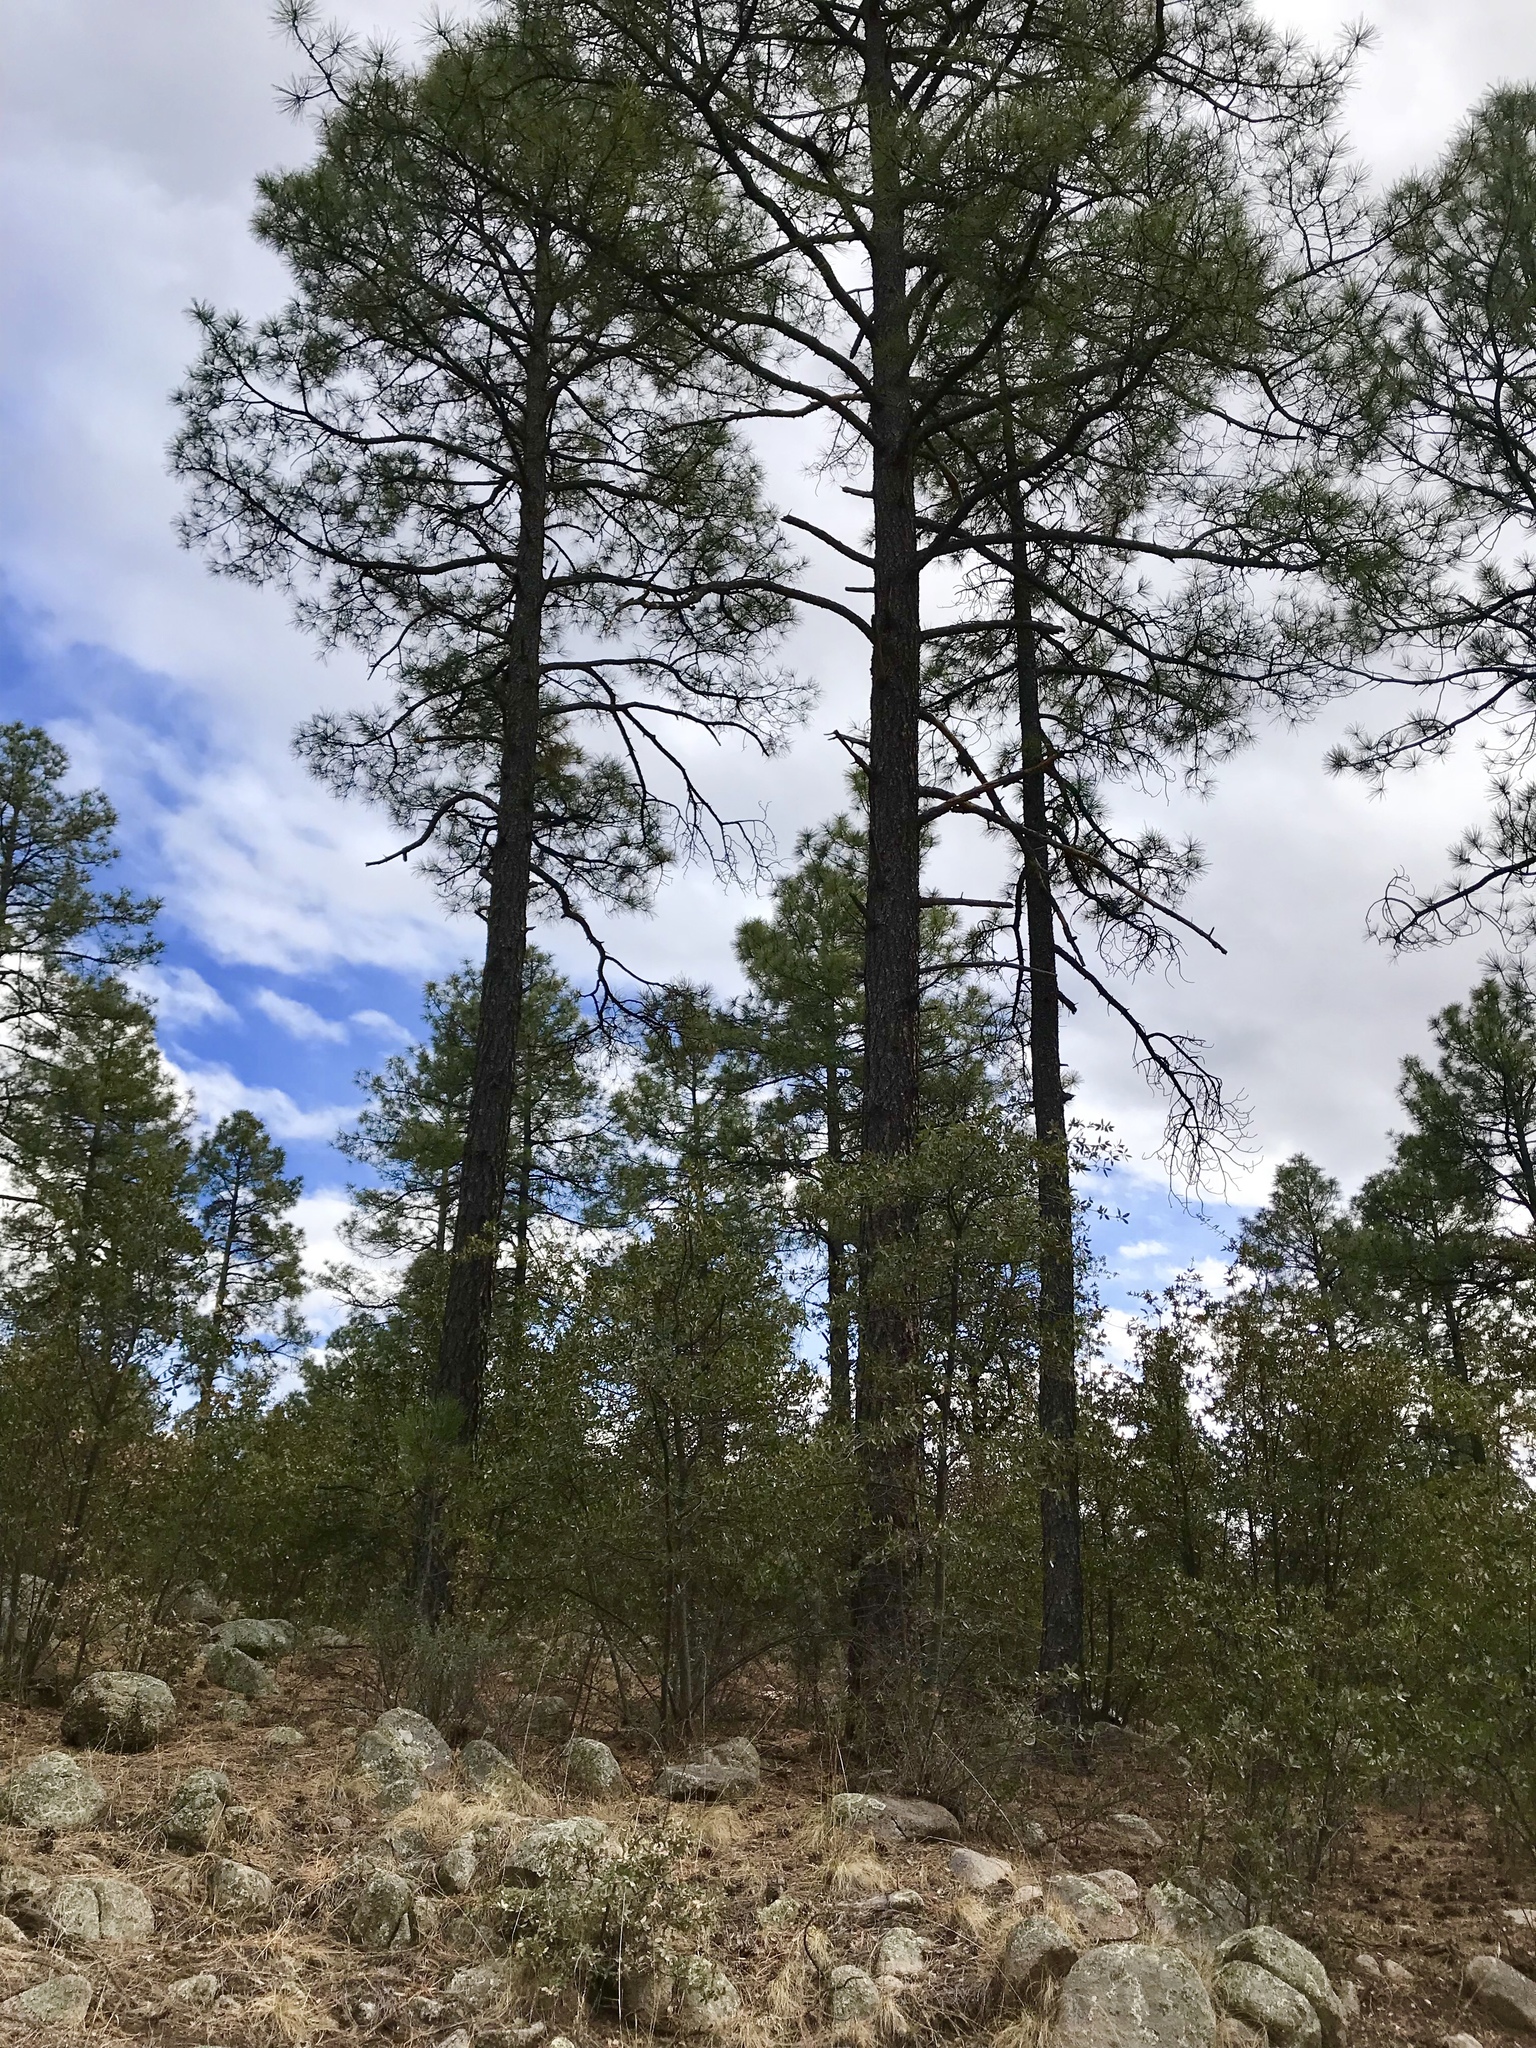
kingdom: Plantae
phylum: Tracheophyta
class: Pinopsida
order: Pinales
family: Pinaceae
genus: Pinus
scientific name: Pinus ponderosa
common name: Western yellow-pine
